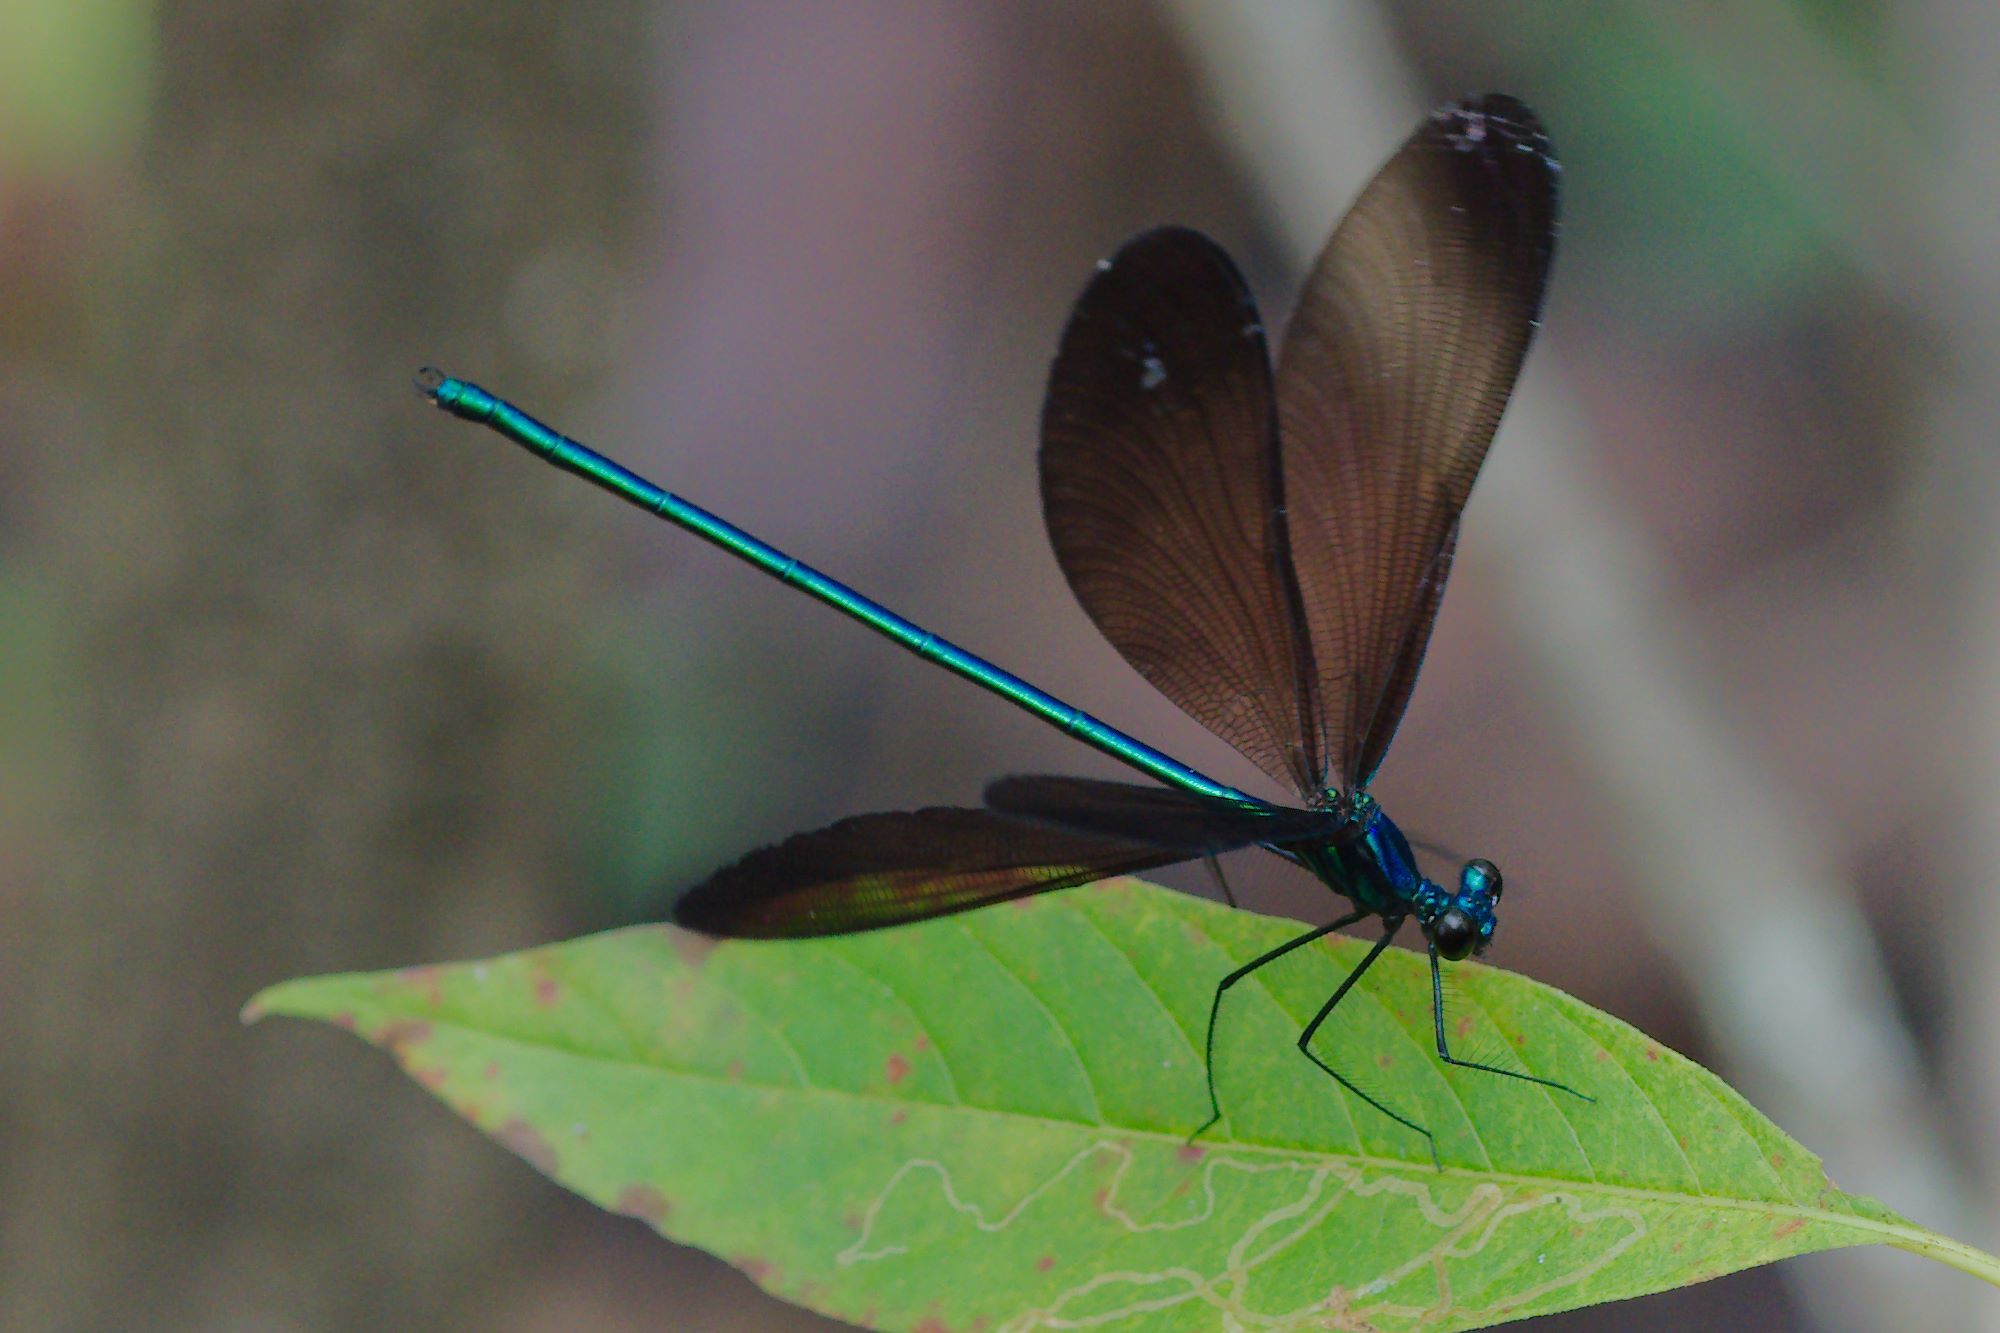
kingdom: Animalia
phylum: Arthropoda
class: Insecta
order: Odonata
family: Calopterygidae
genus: Calopteryx
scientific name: Calopteryx maculata
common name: Ebony jewelwing
